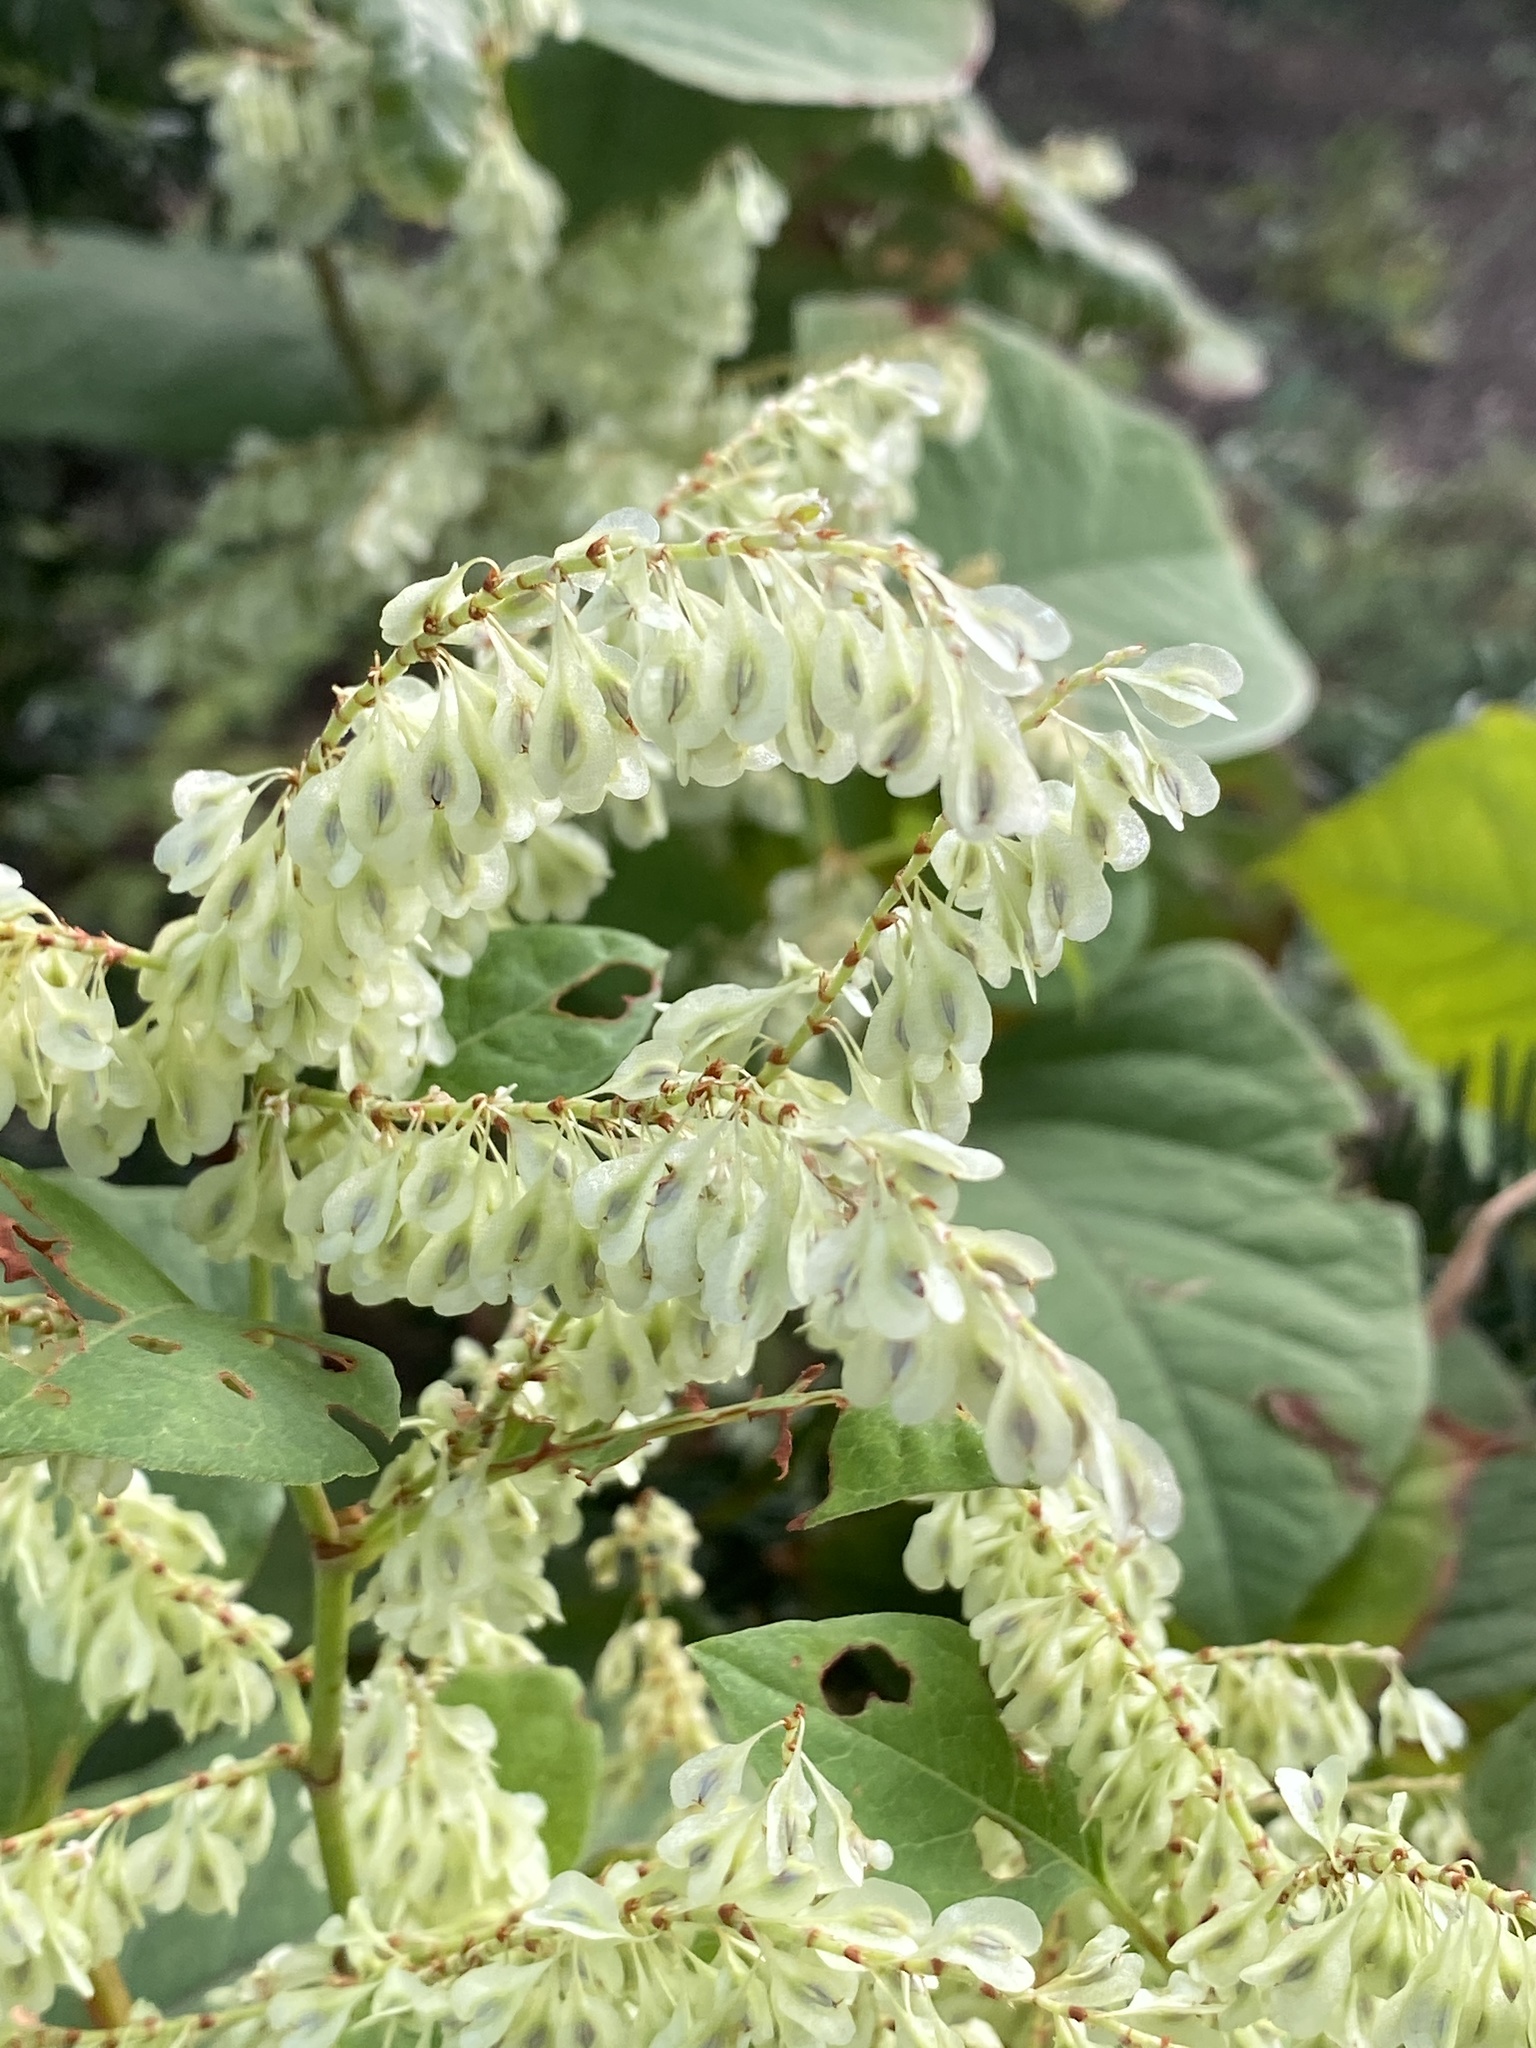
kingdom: Plantae
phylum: Tracheophyta
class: Magnoliopsida
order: Caryophyllales
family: Polygonaceae
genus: Reynoutria
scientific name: Reynoutria japonica
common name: Japanese knotweed
